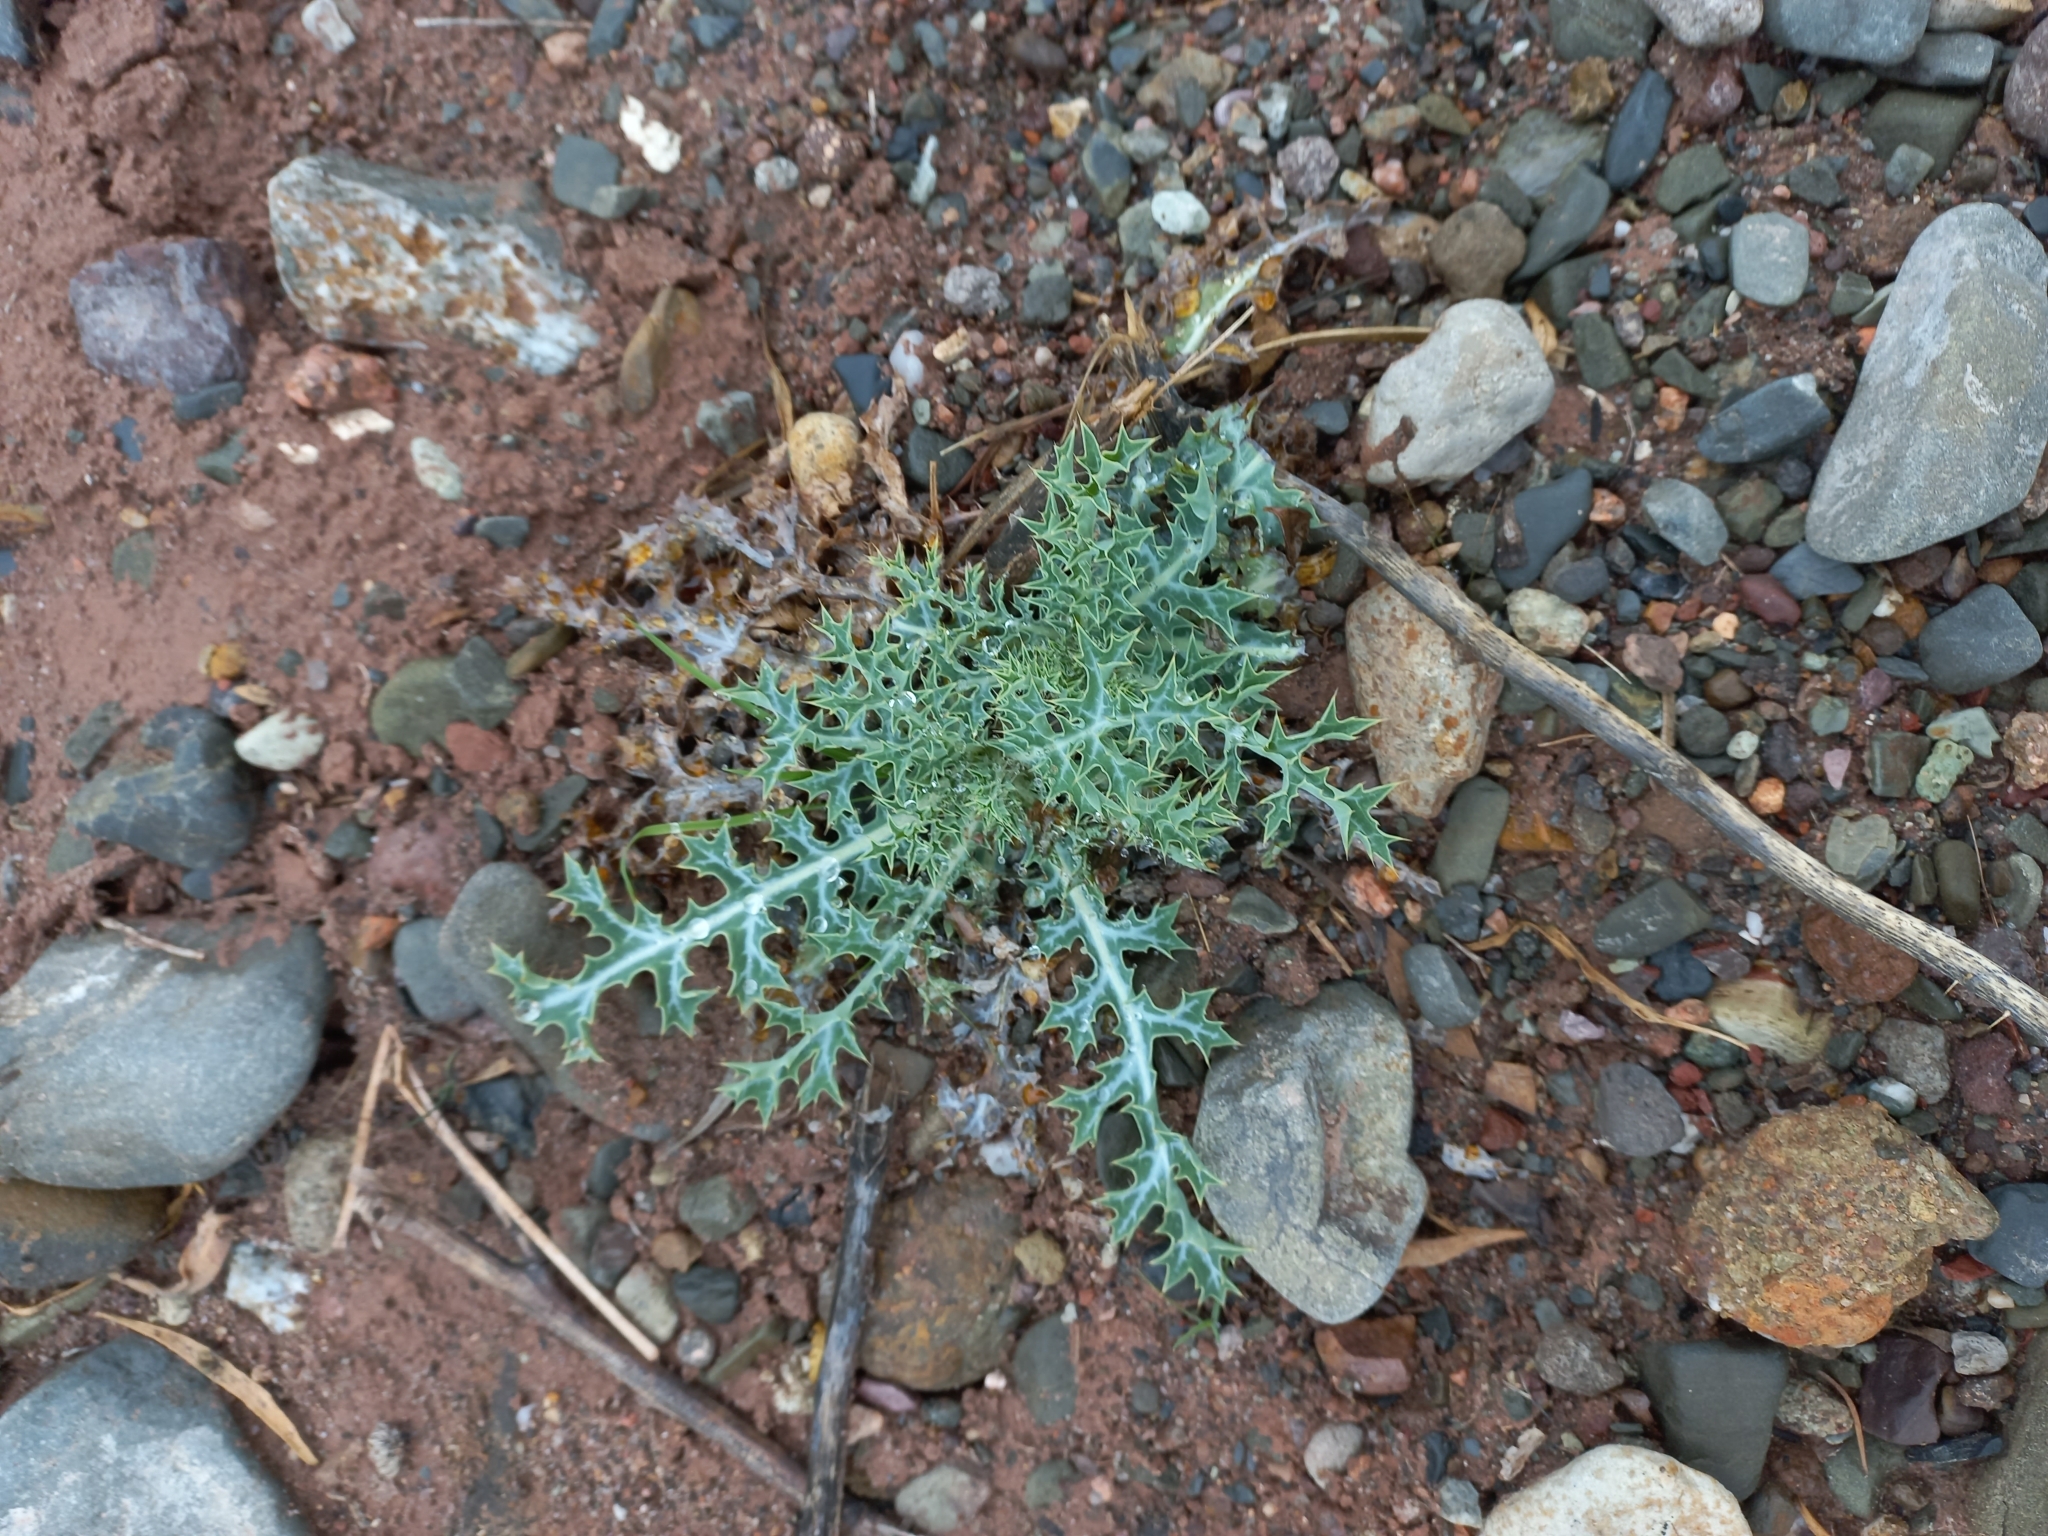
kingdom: Plantae
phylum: Tracheophyta
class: Magnoliopsida
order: Ranunculales
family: Papaveraceae
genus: Argemone
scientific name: Argemone subfusiformis
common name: American-poppy
